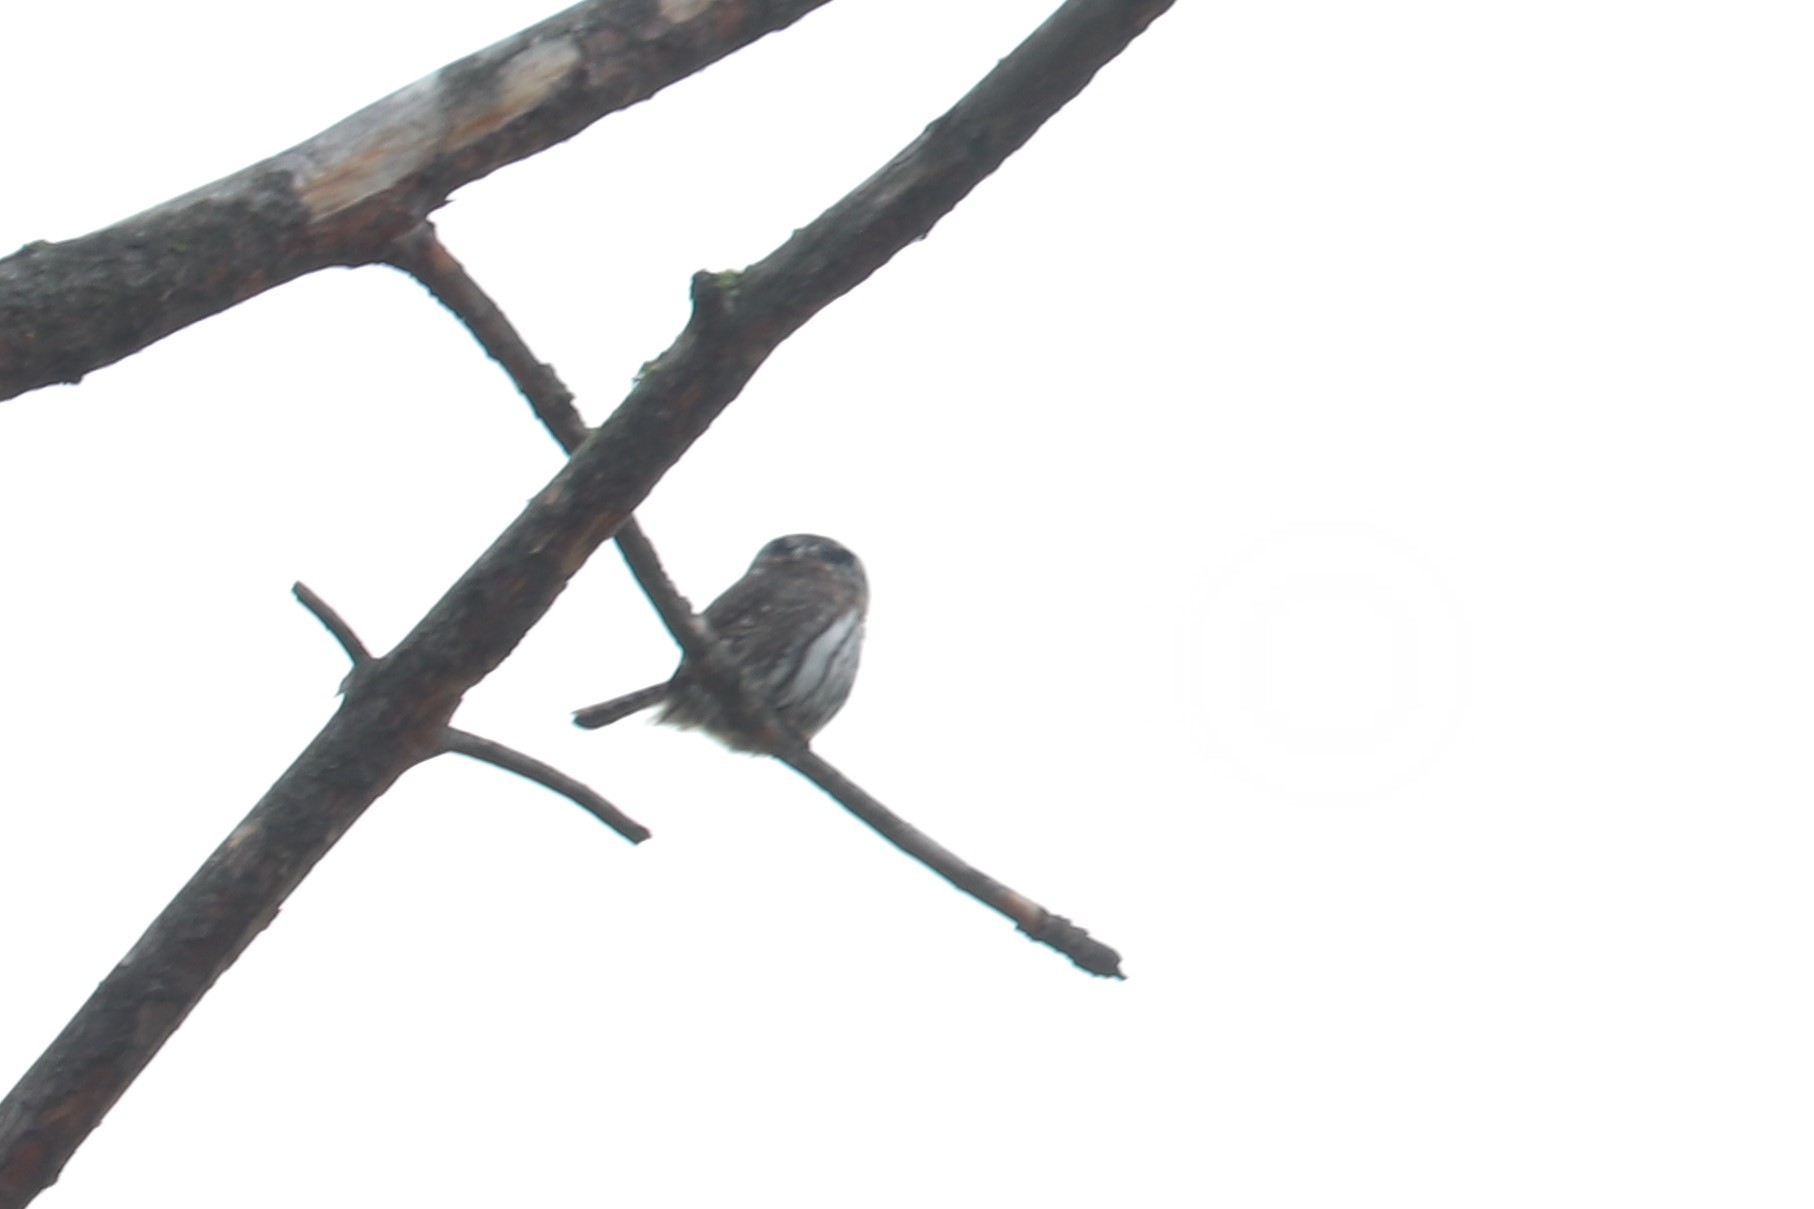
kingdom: Animalia
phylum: Chordata
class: Aves
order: Strigiformes
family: Strigidae
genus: Glaucidium
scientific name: Glaucidium gnoma
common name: Northern pygmy-owl
